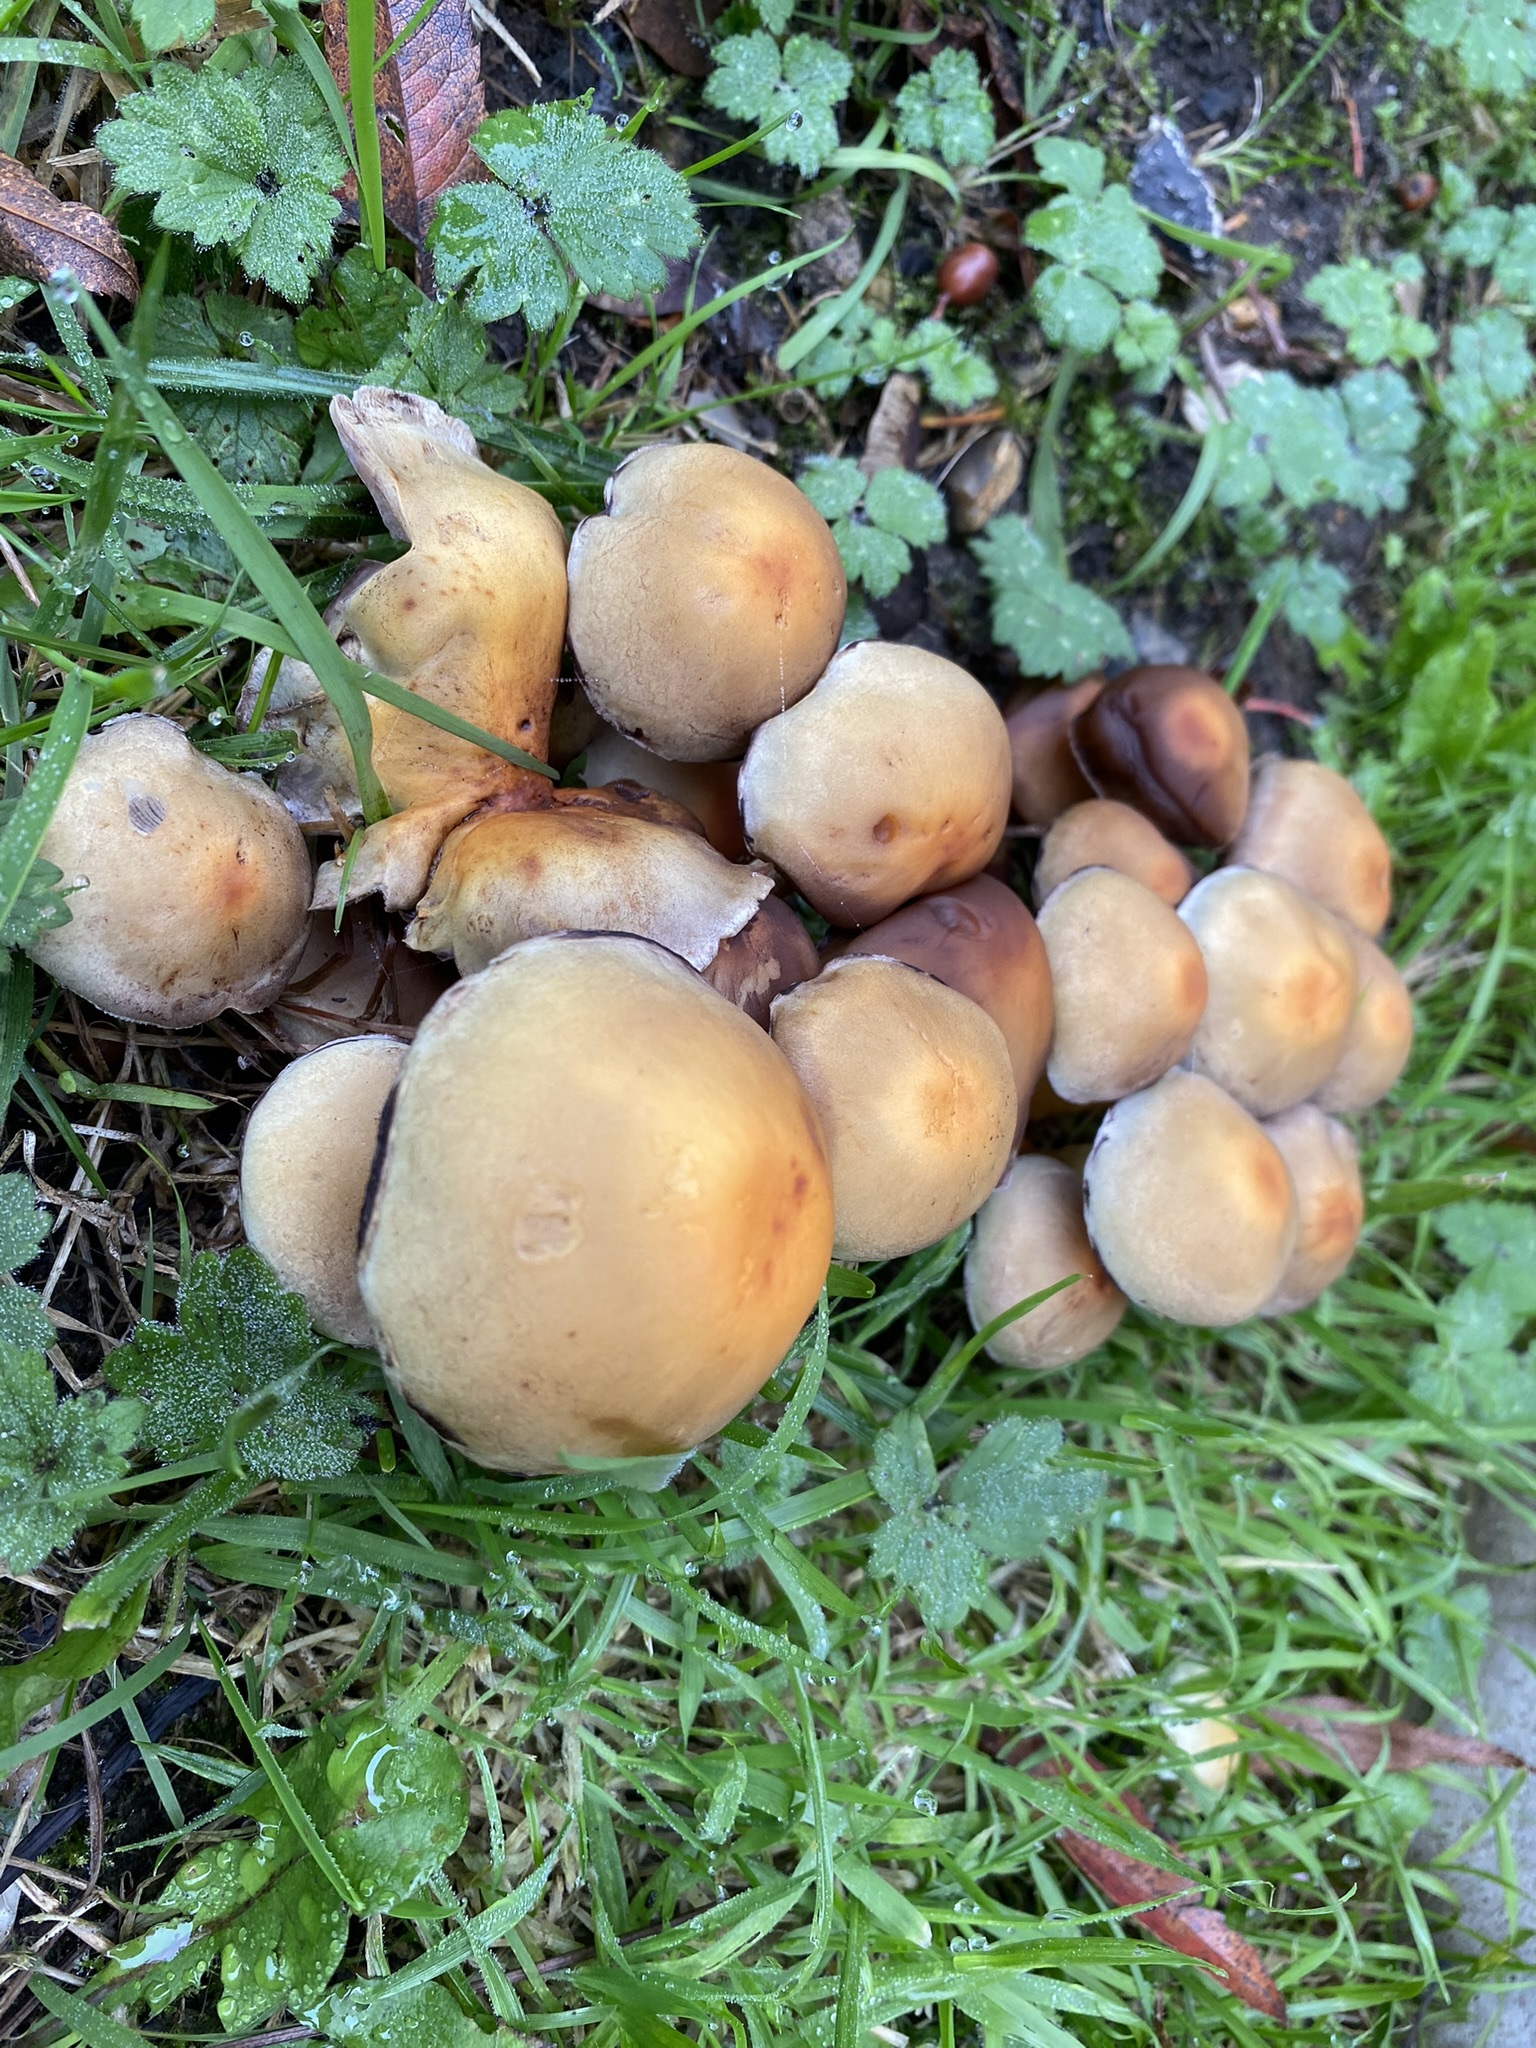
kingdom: Fungi
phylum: Basidiomycota
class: Agaricomycetes
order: Agaricales
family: Strophariaceae
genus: Hypholoma
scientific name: Hypholoma fasciculare
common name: Sulphur tuft
